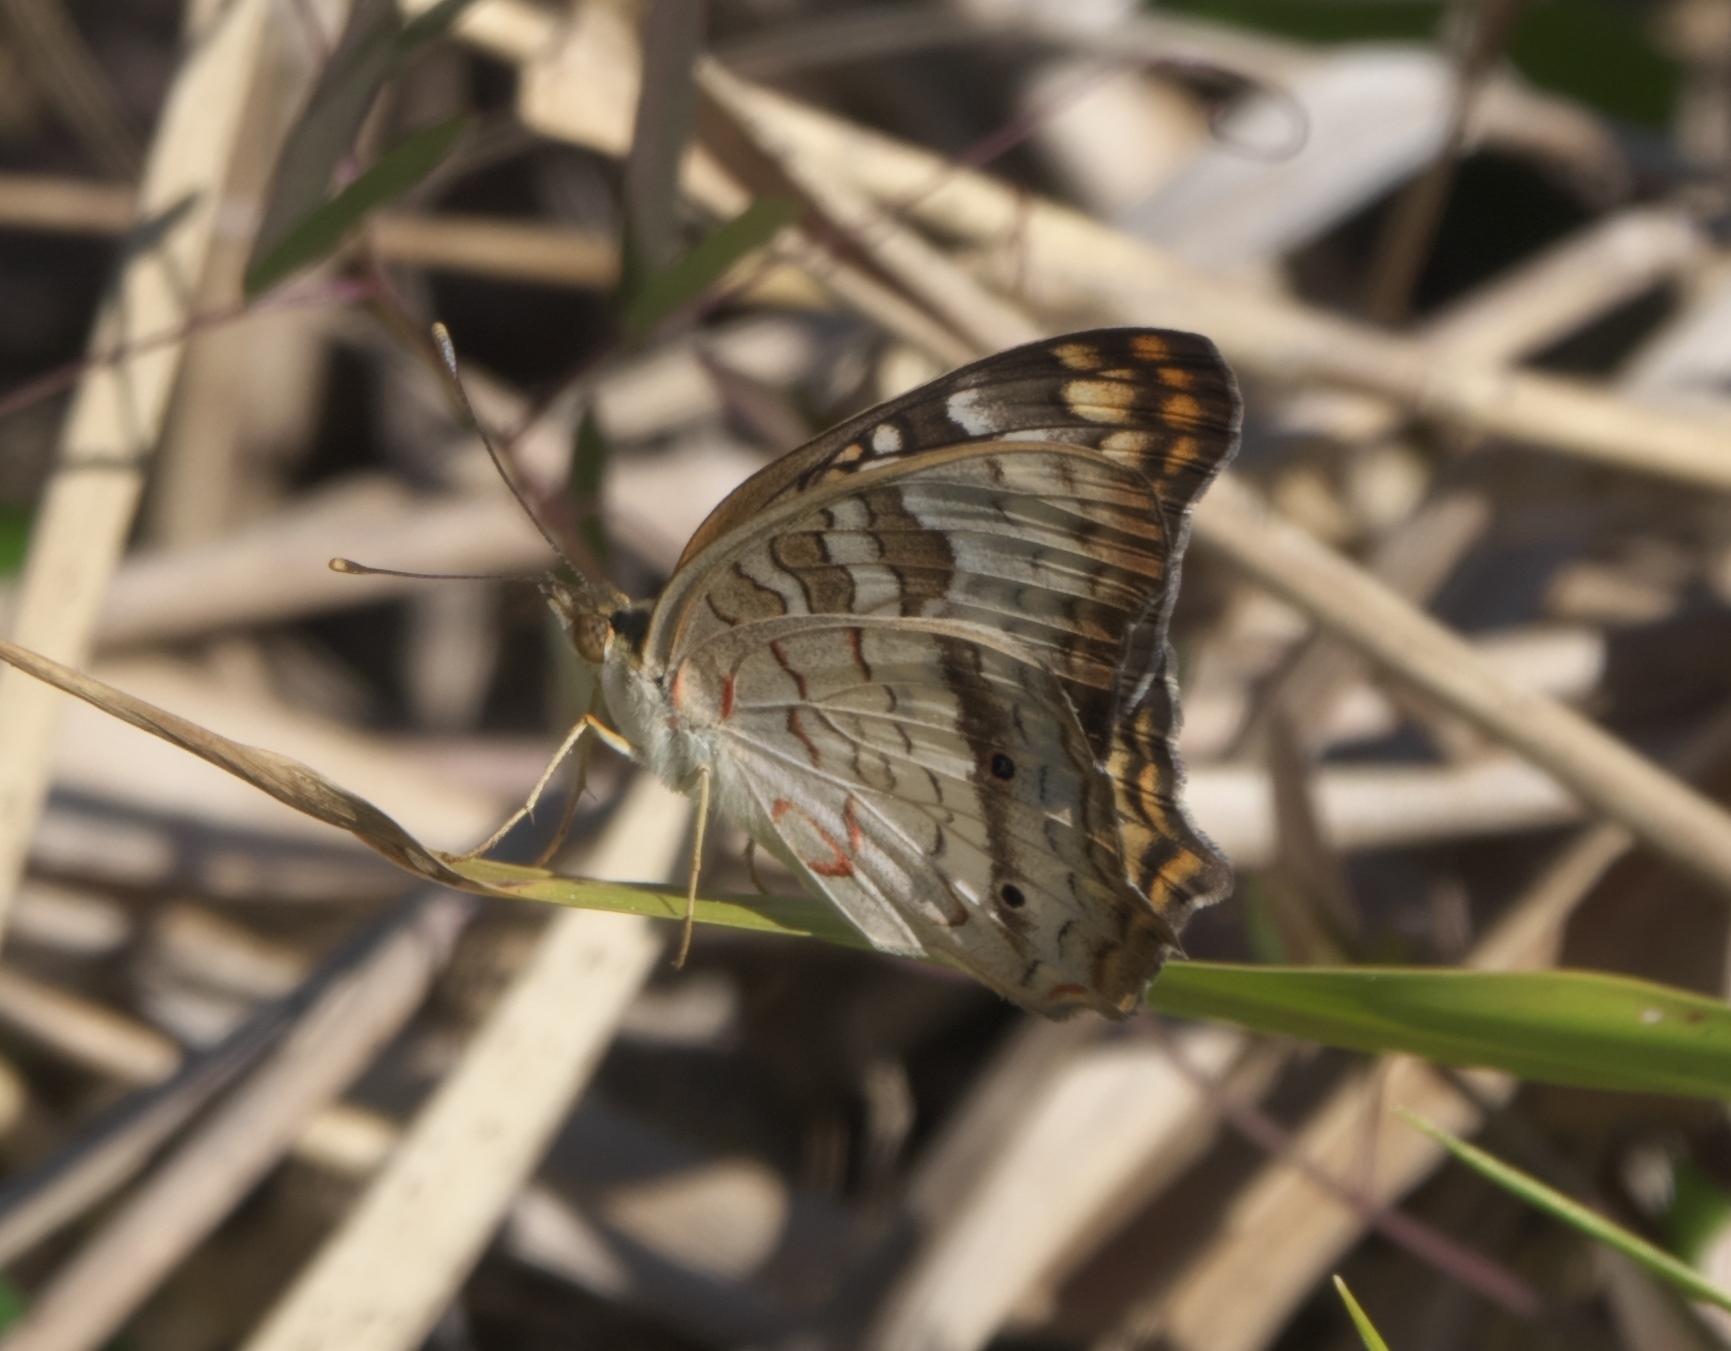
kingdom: Animalia
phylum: Arthropoda
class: Insecta
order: Lepidoptera
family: Nymphalidae
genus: Anartia
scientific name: Anartia jatrophae
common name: White peacock
